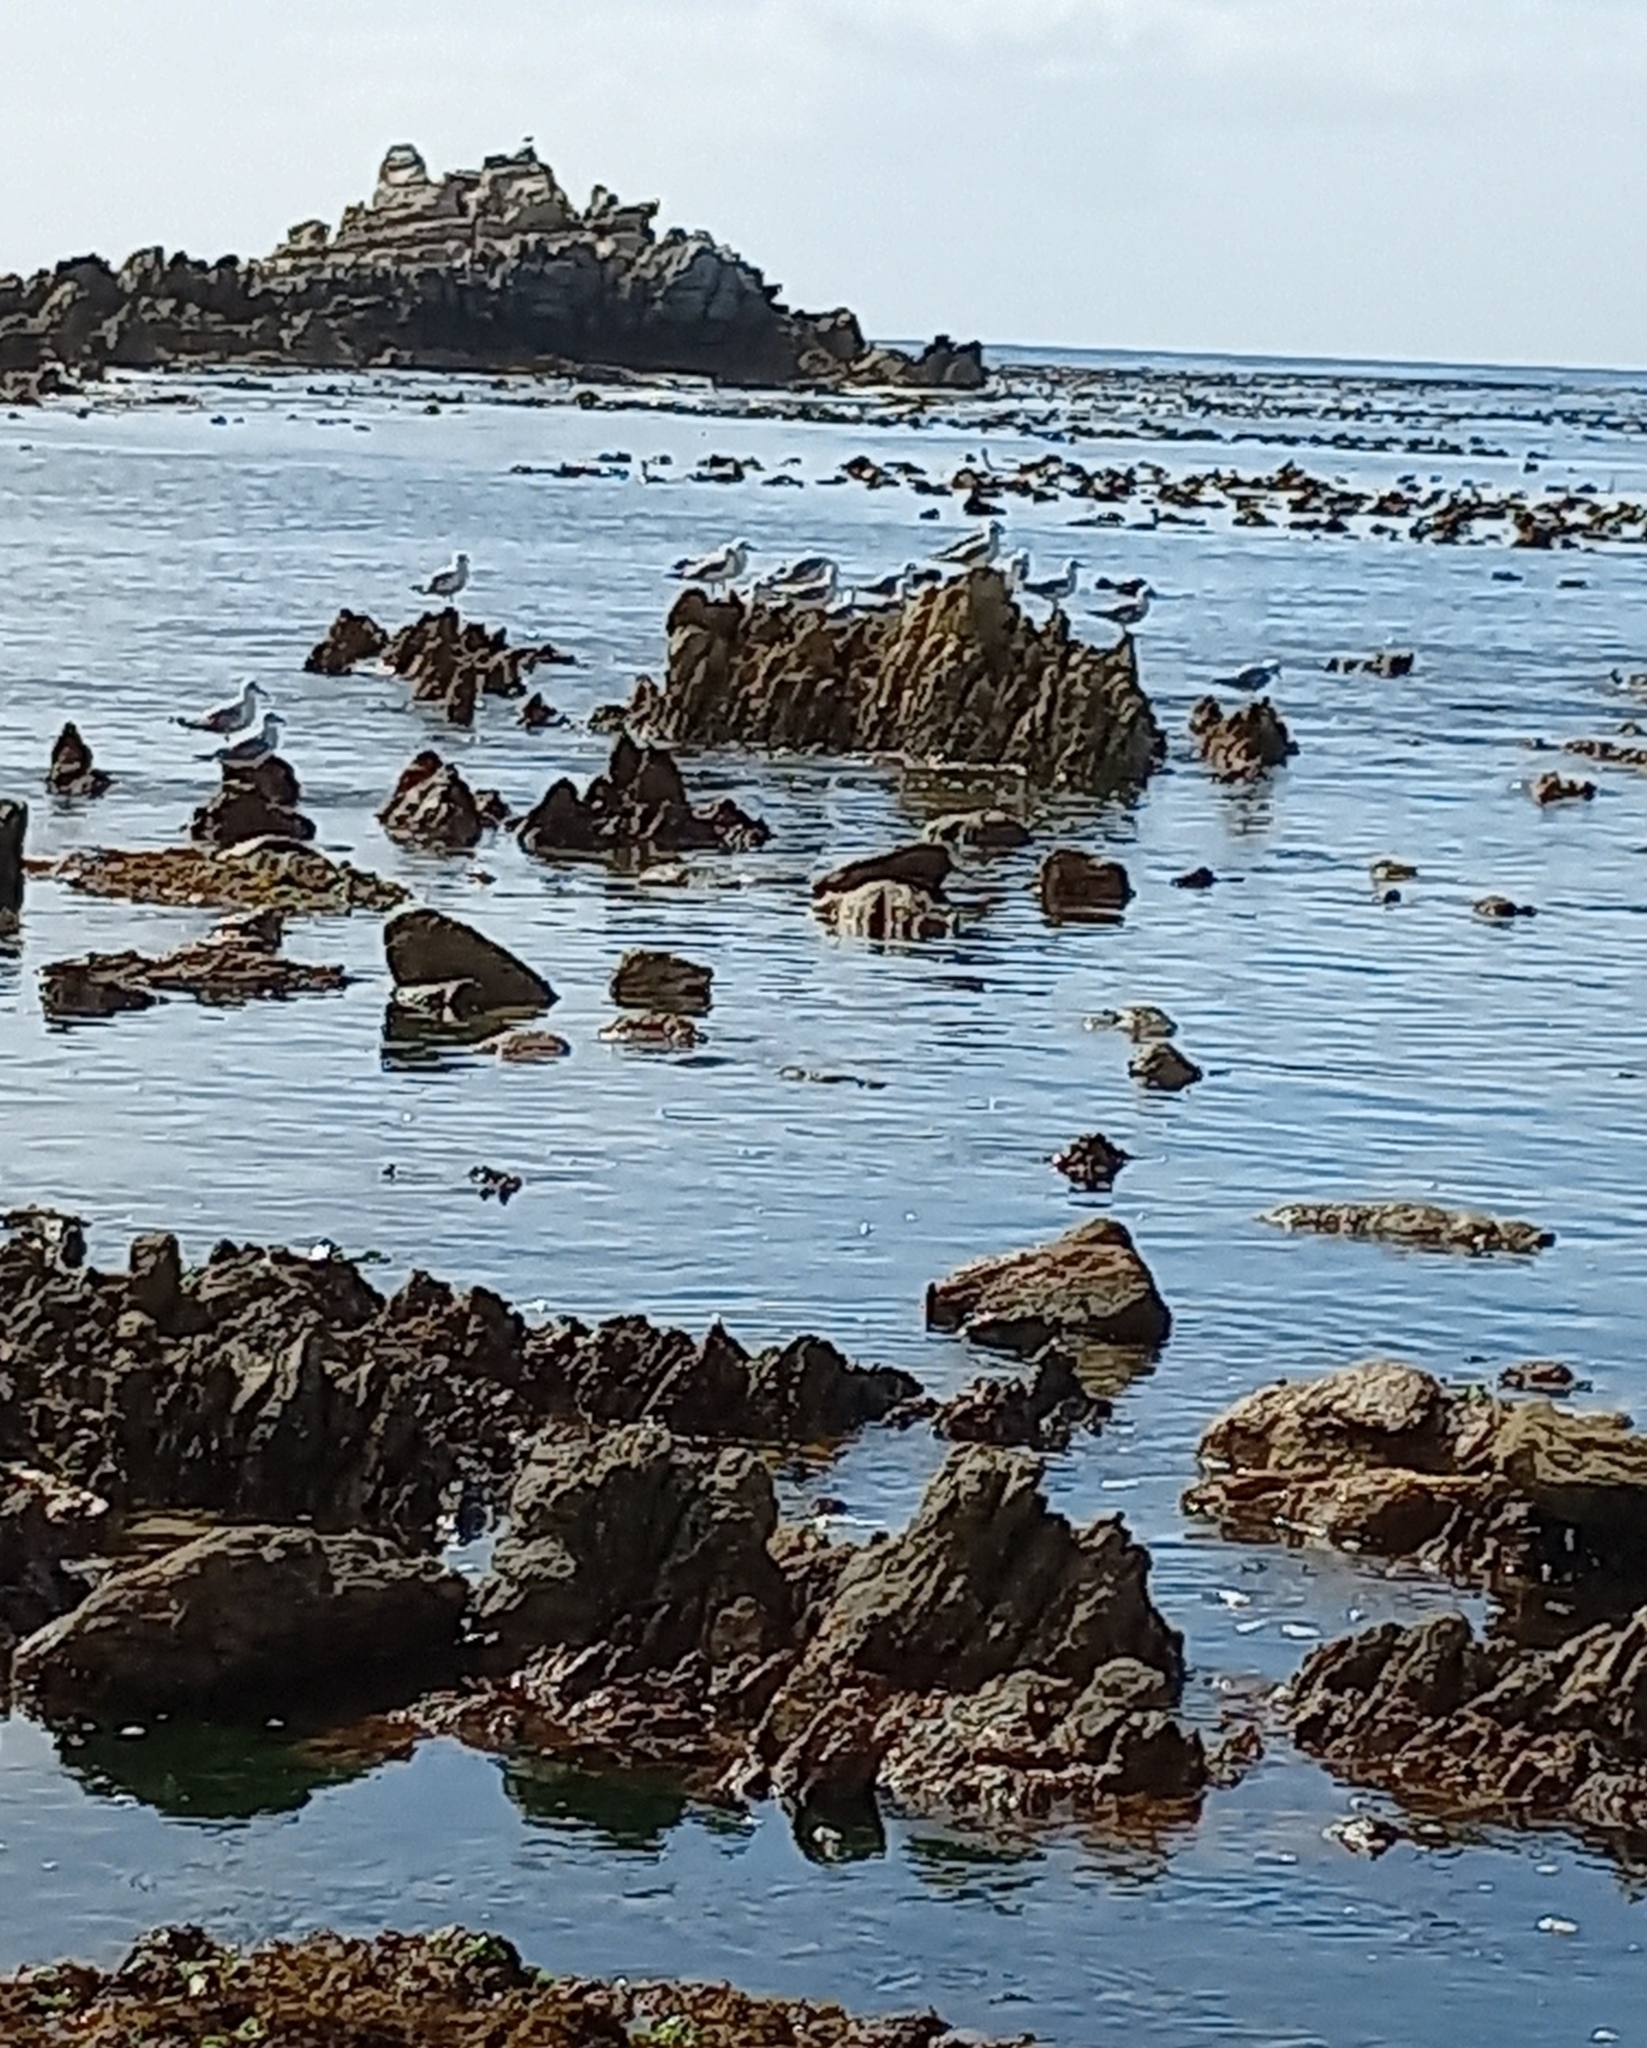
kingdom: Animalia
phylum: Chordata
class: Aves
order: Charadriiformes
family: Laridae
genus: Chroicocephalus
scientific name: Chroicocephalus hartlaubii
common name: Hartlaub's gull
